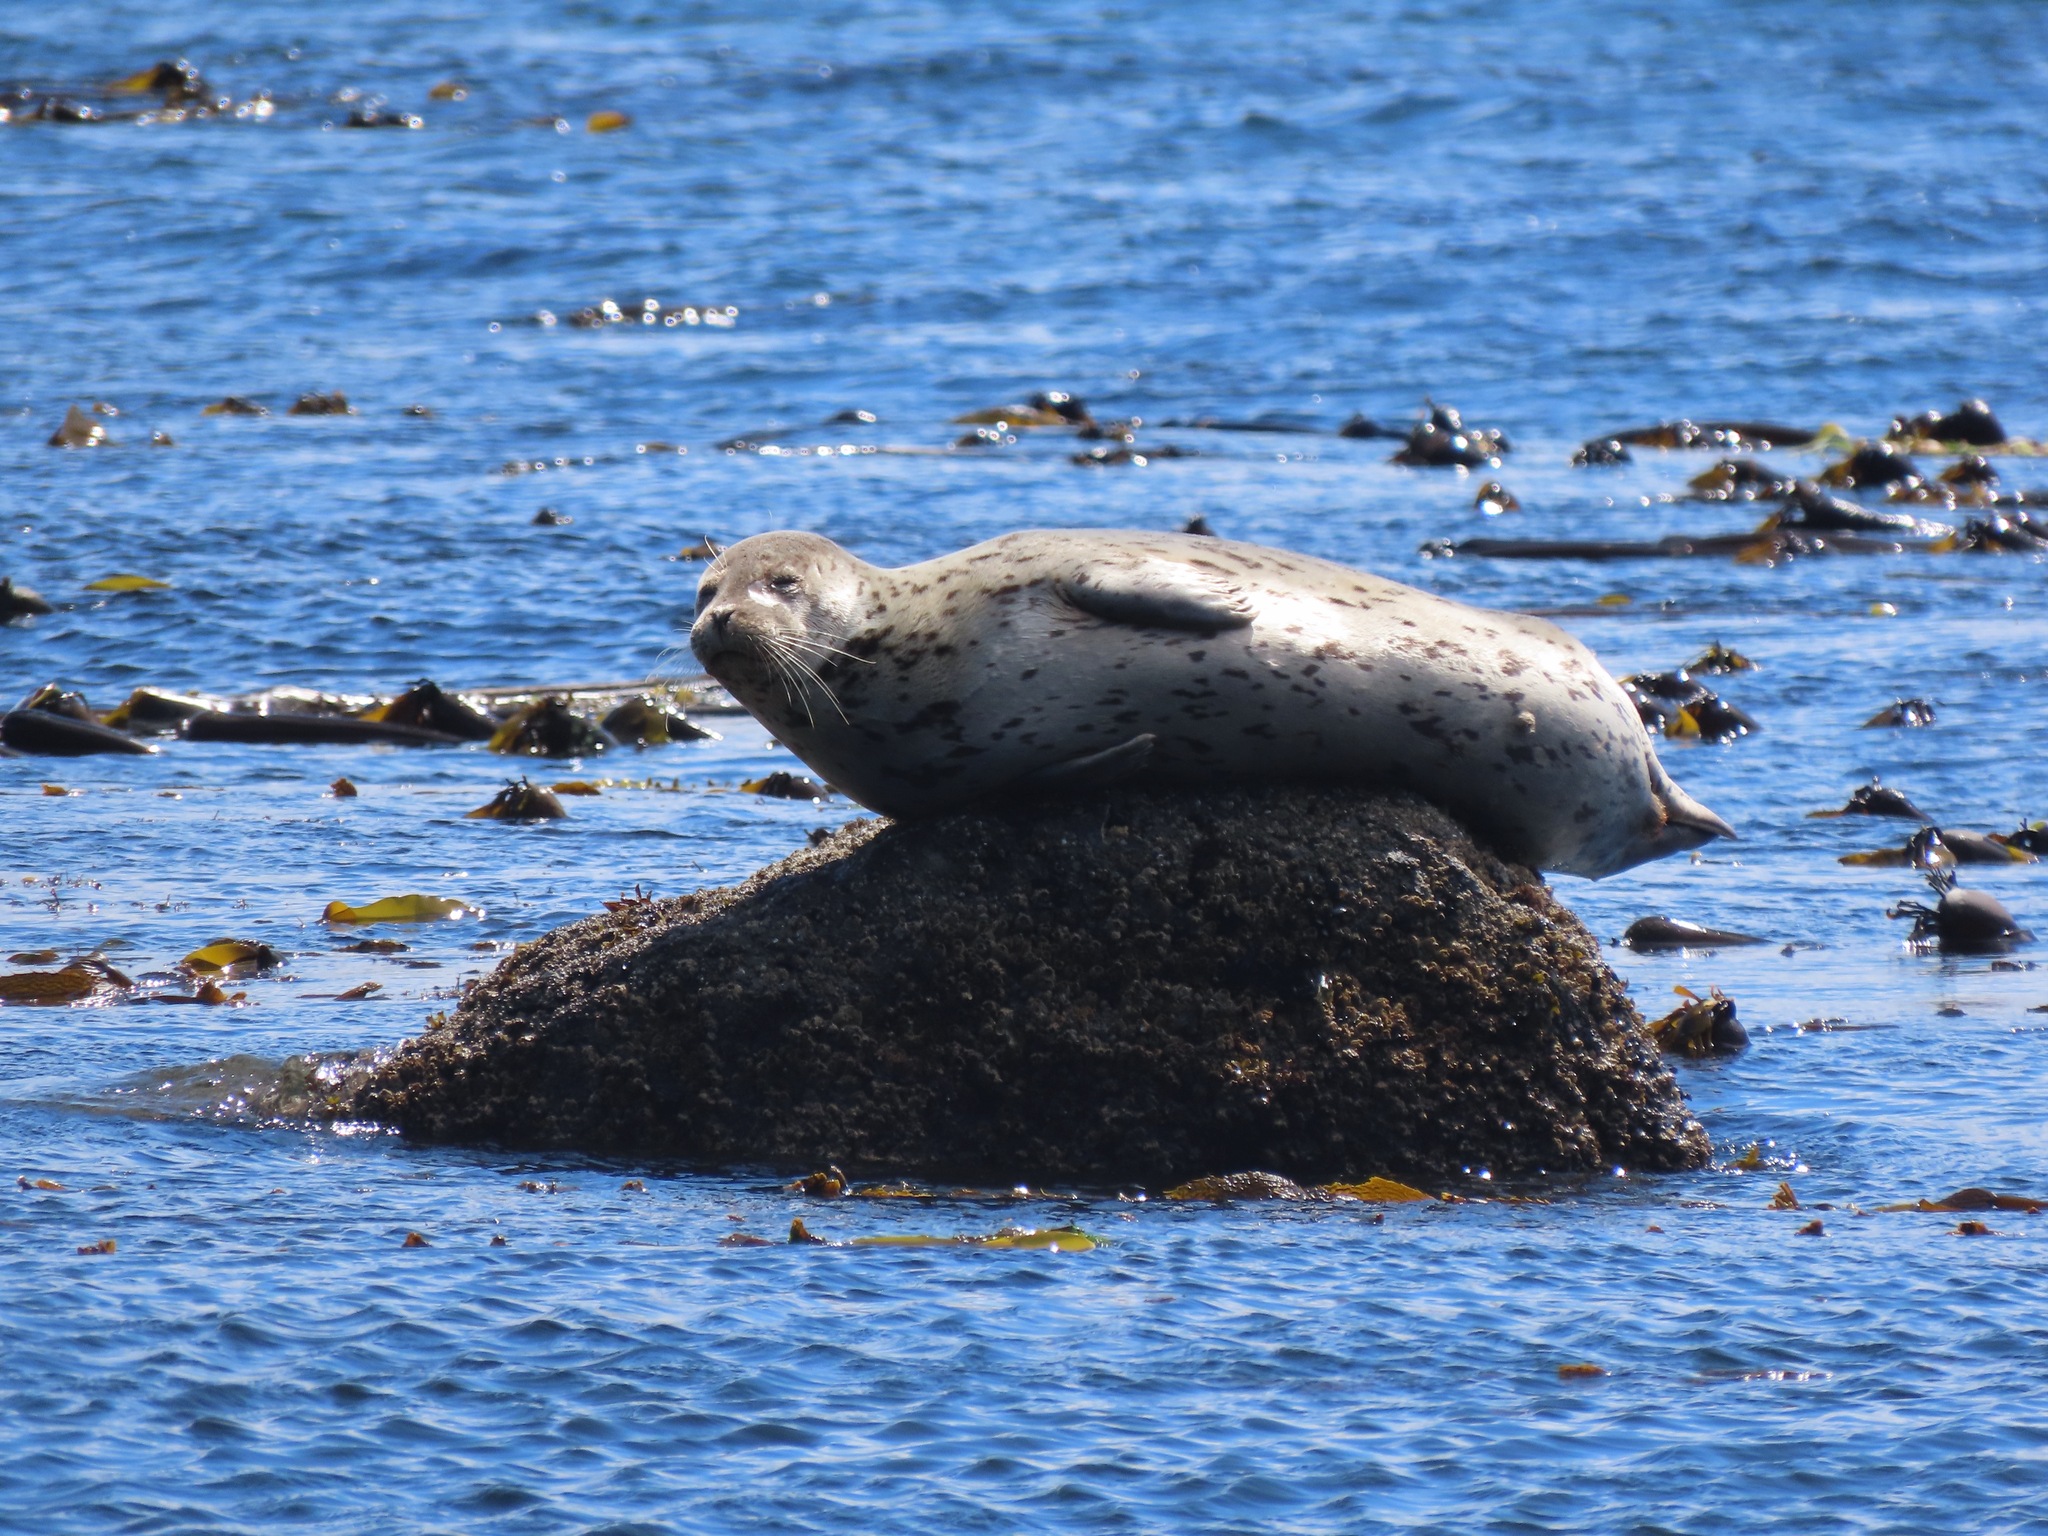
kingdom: Animalia
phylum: Chordata
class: Mammalia
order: Carnivora
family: Phocidae
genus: Phoca
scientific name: Phoca vitulina
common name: Harbor seal
